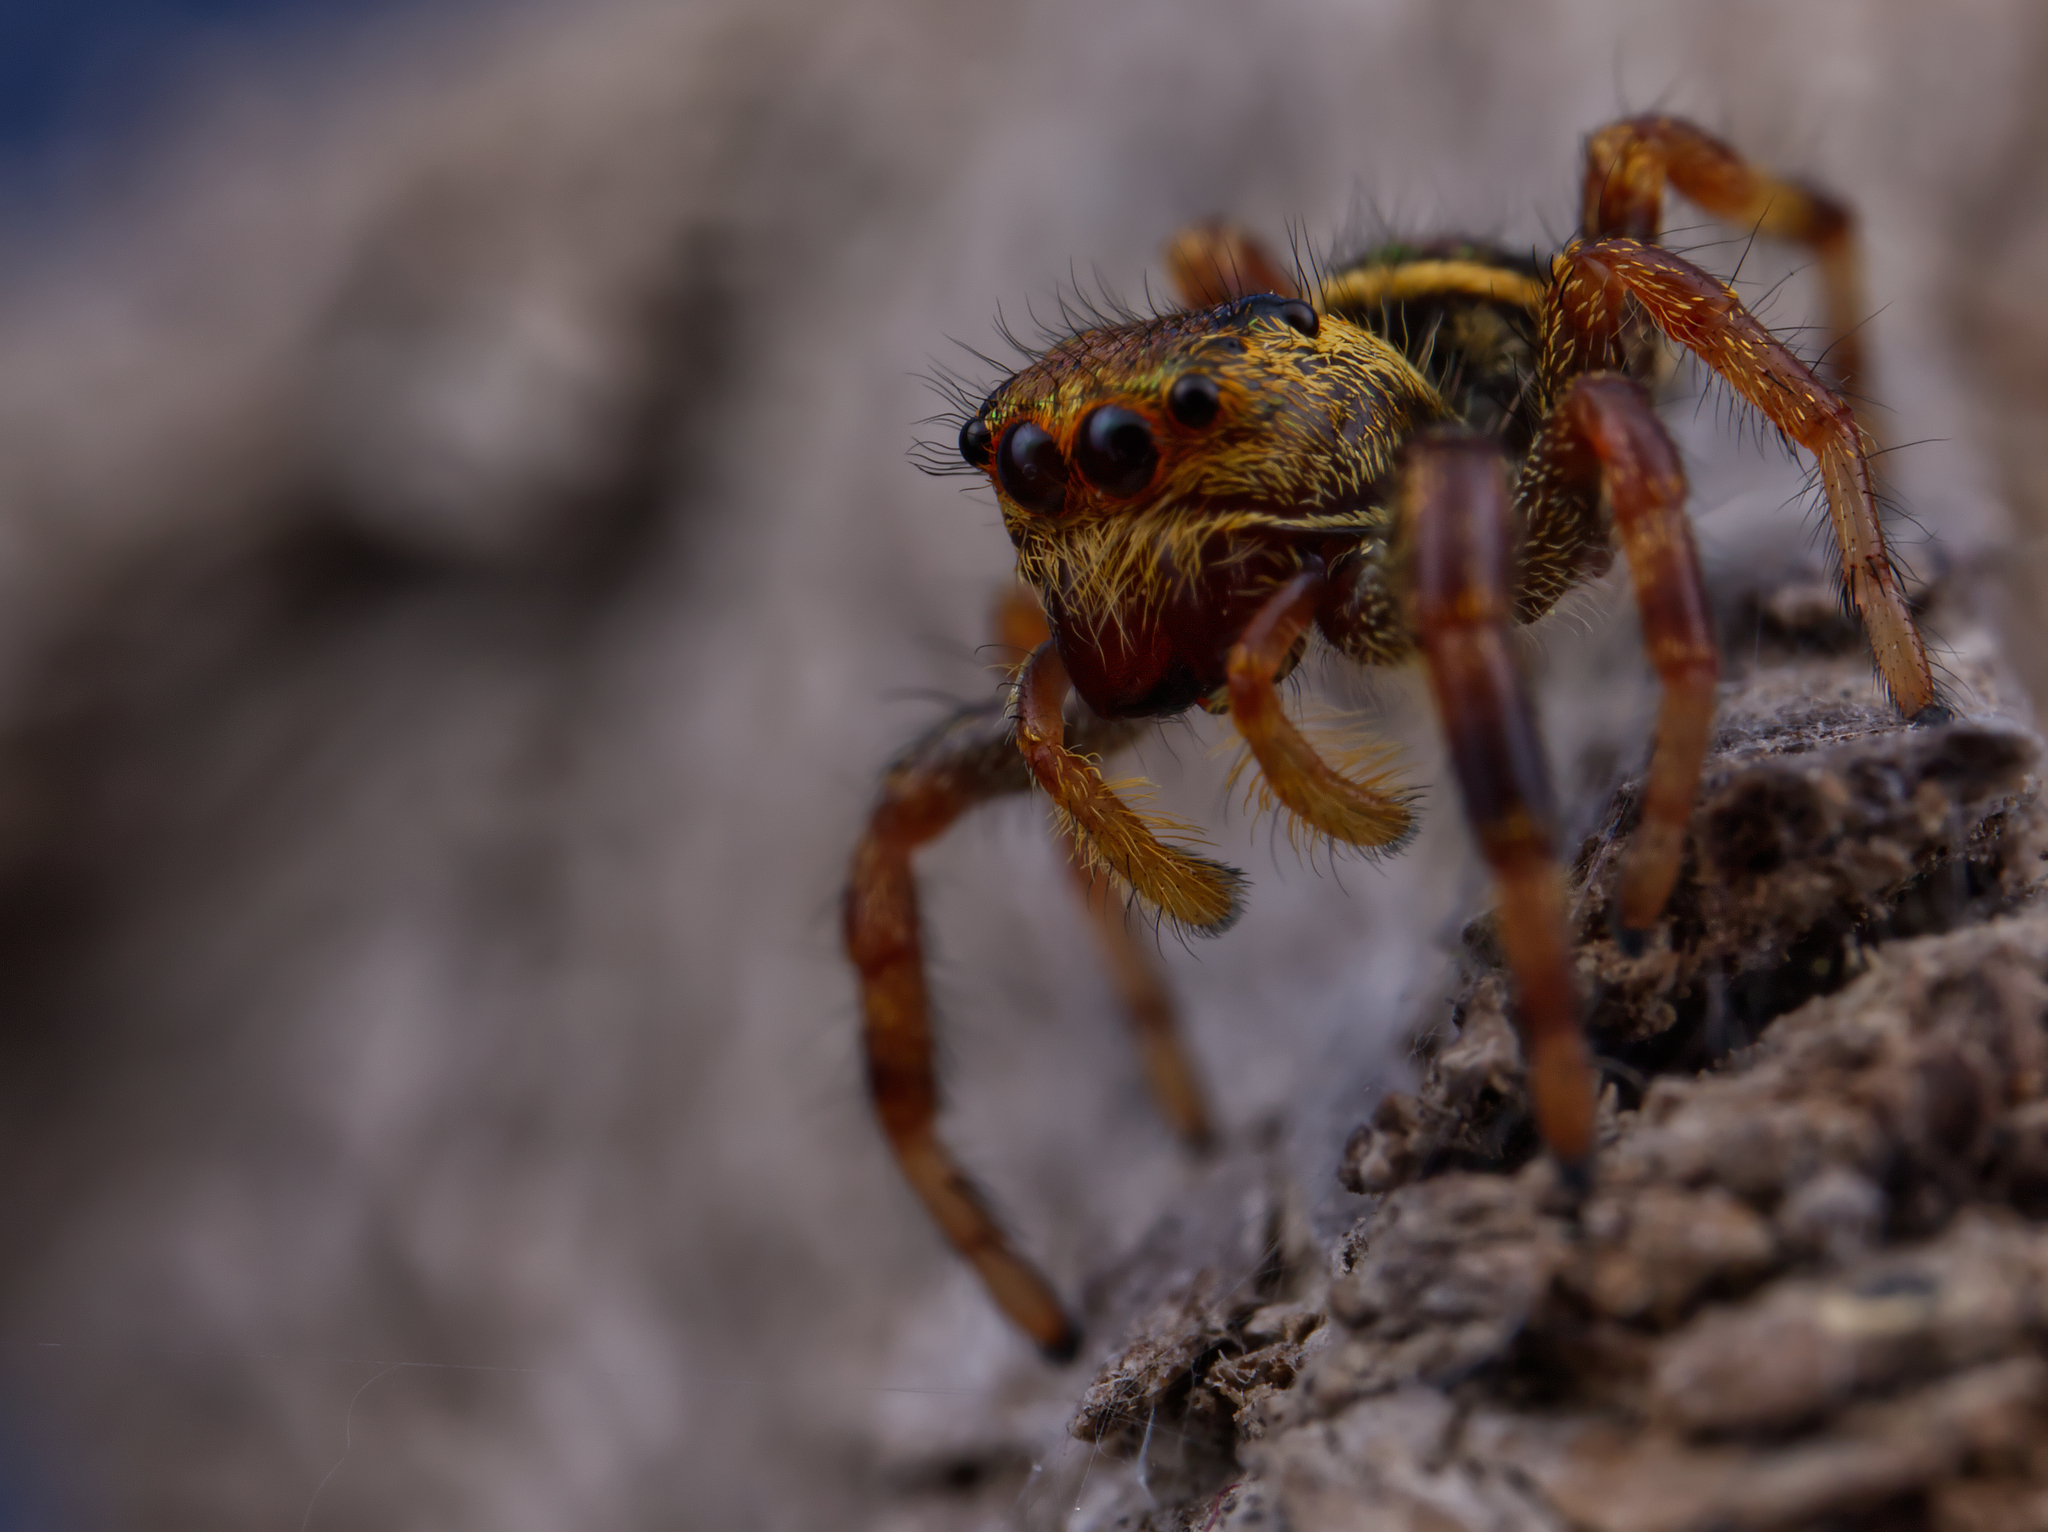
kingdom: Animalia
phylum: Arthropoda
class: Arachnida
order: Araneae
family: Salticidae
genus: Paraphidippus
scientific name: Paraphidippus aurantius
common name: Jumping spiders
